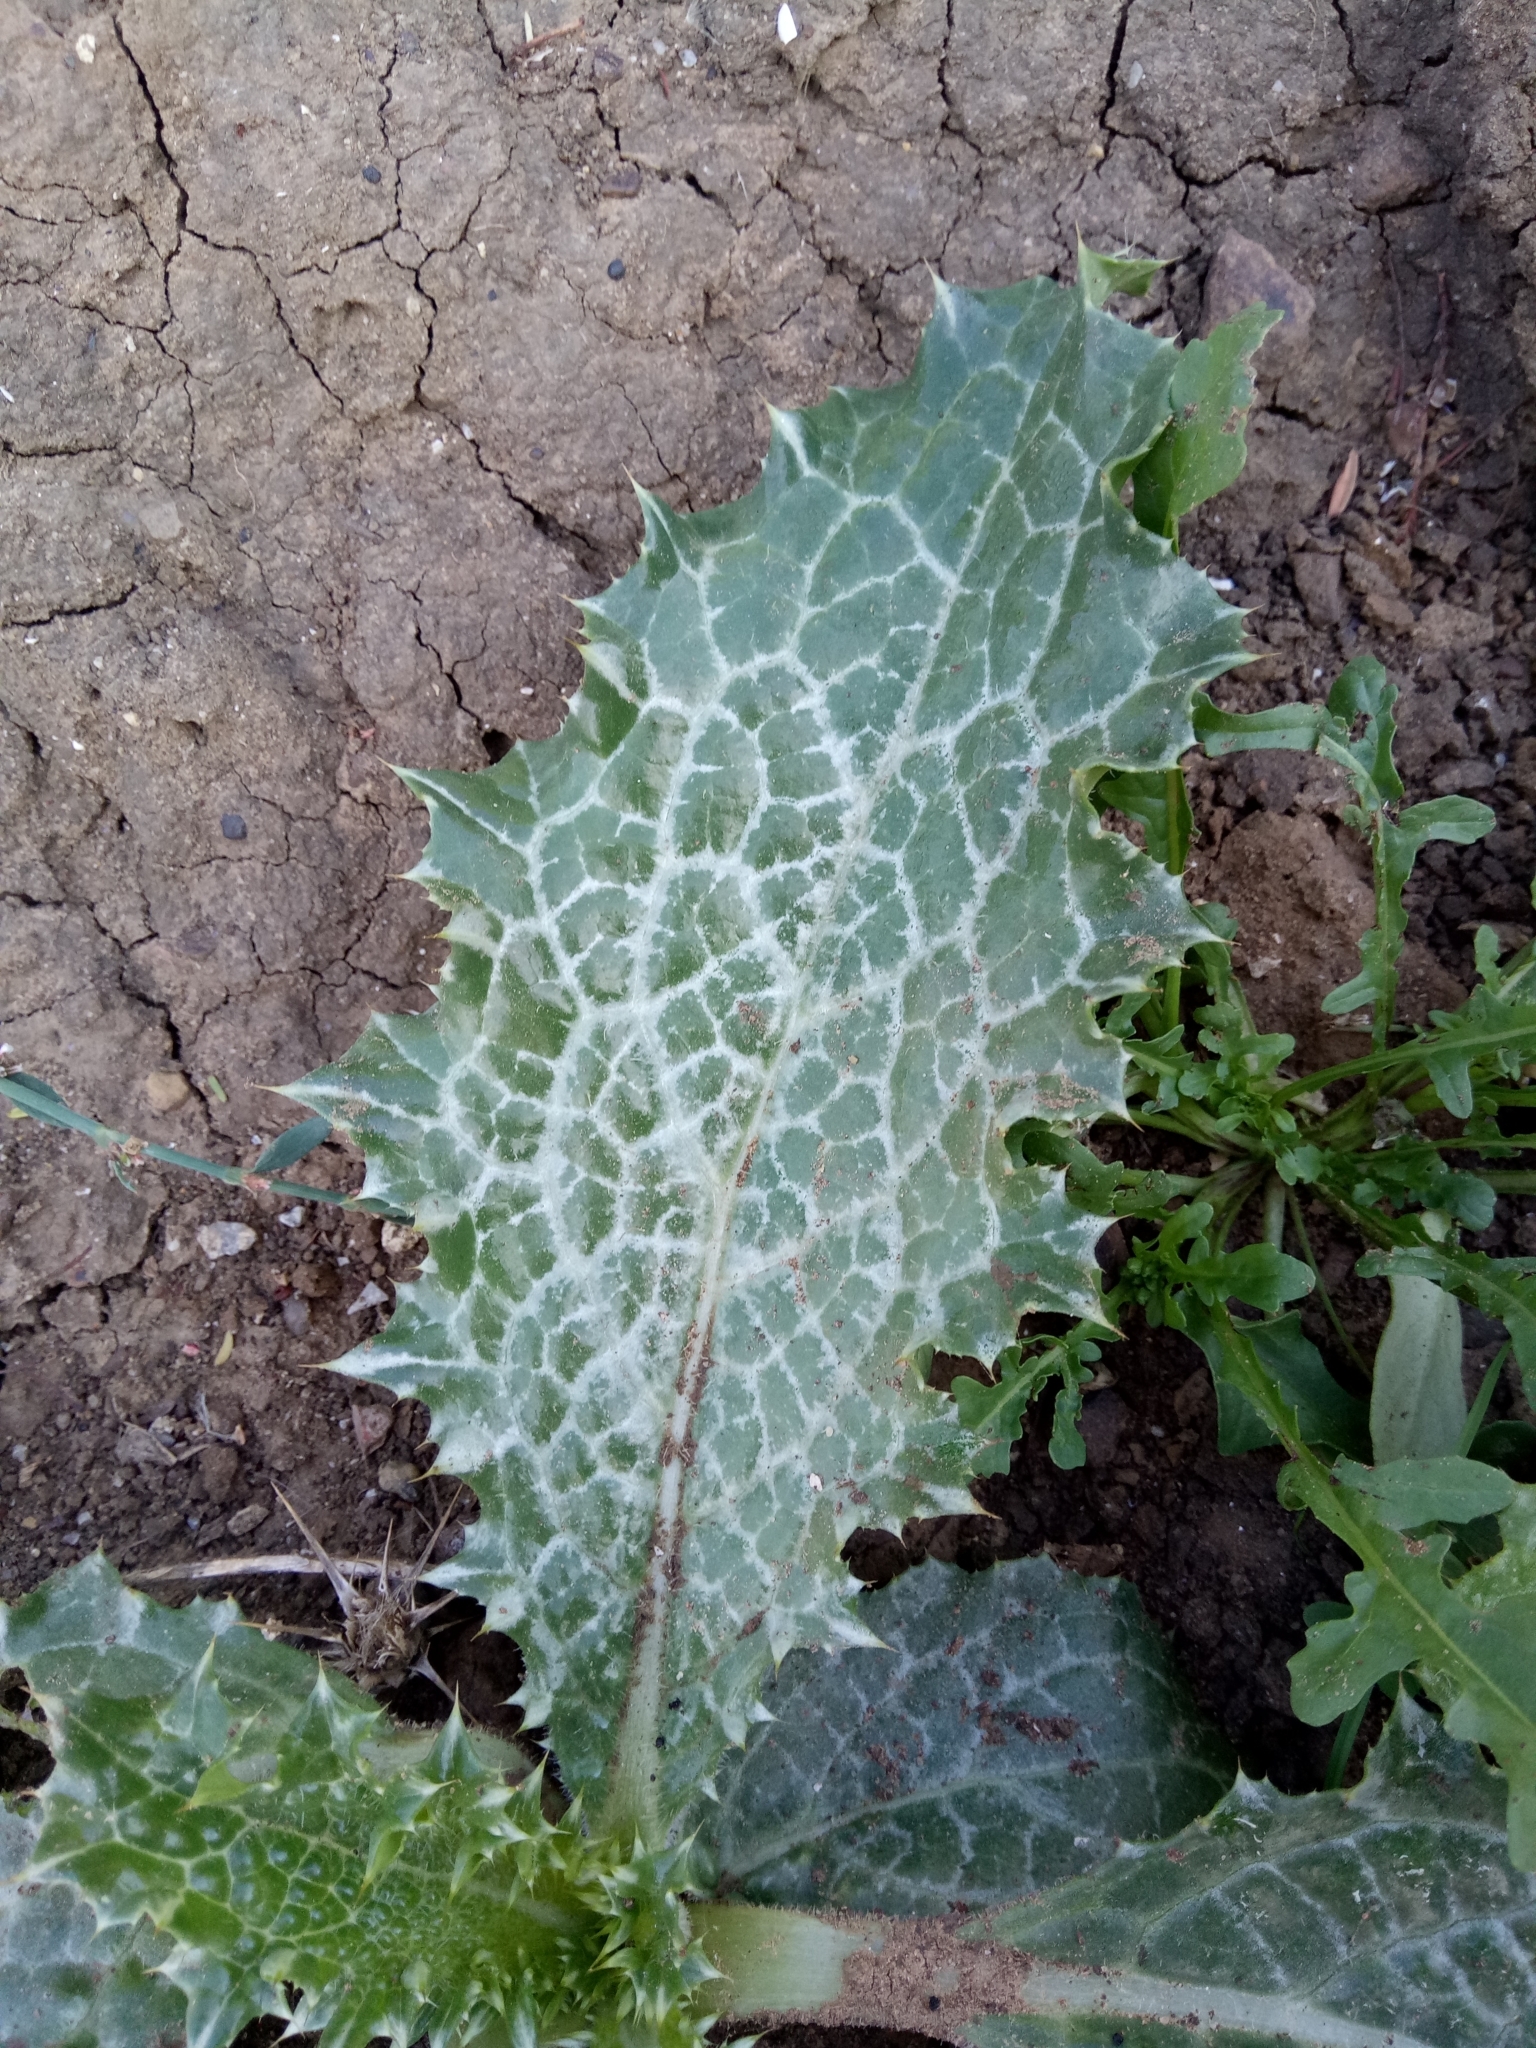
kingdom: Plantae
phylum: Tracheophyta
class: Magnoliopsida
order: Asterales
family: Asteraceae
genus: Silybum
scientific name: Silybum marianum
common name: Milk thistle
